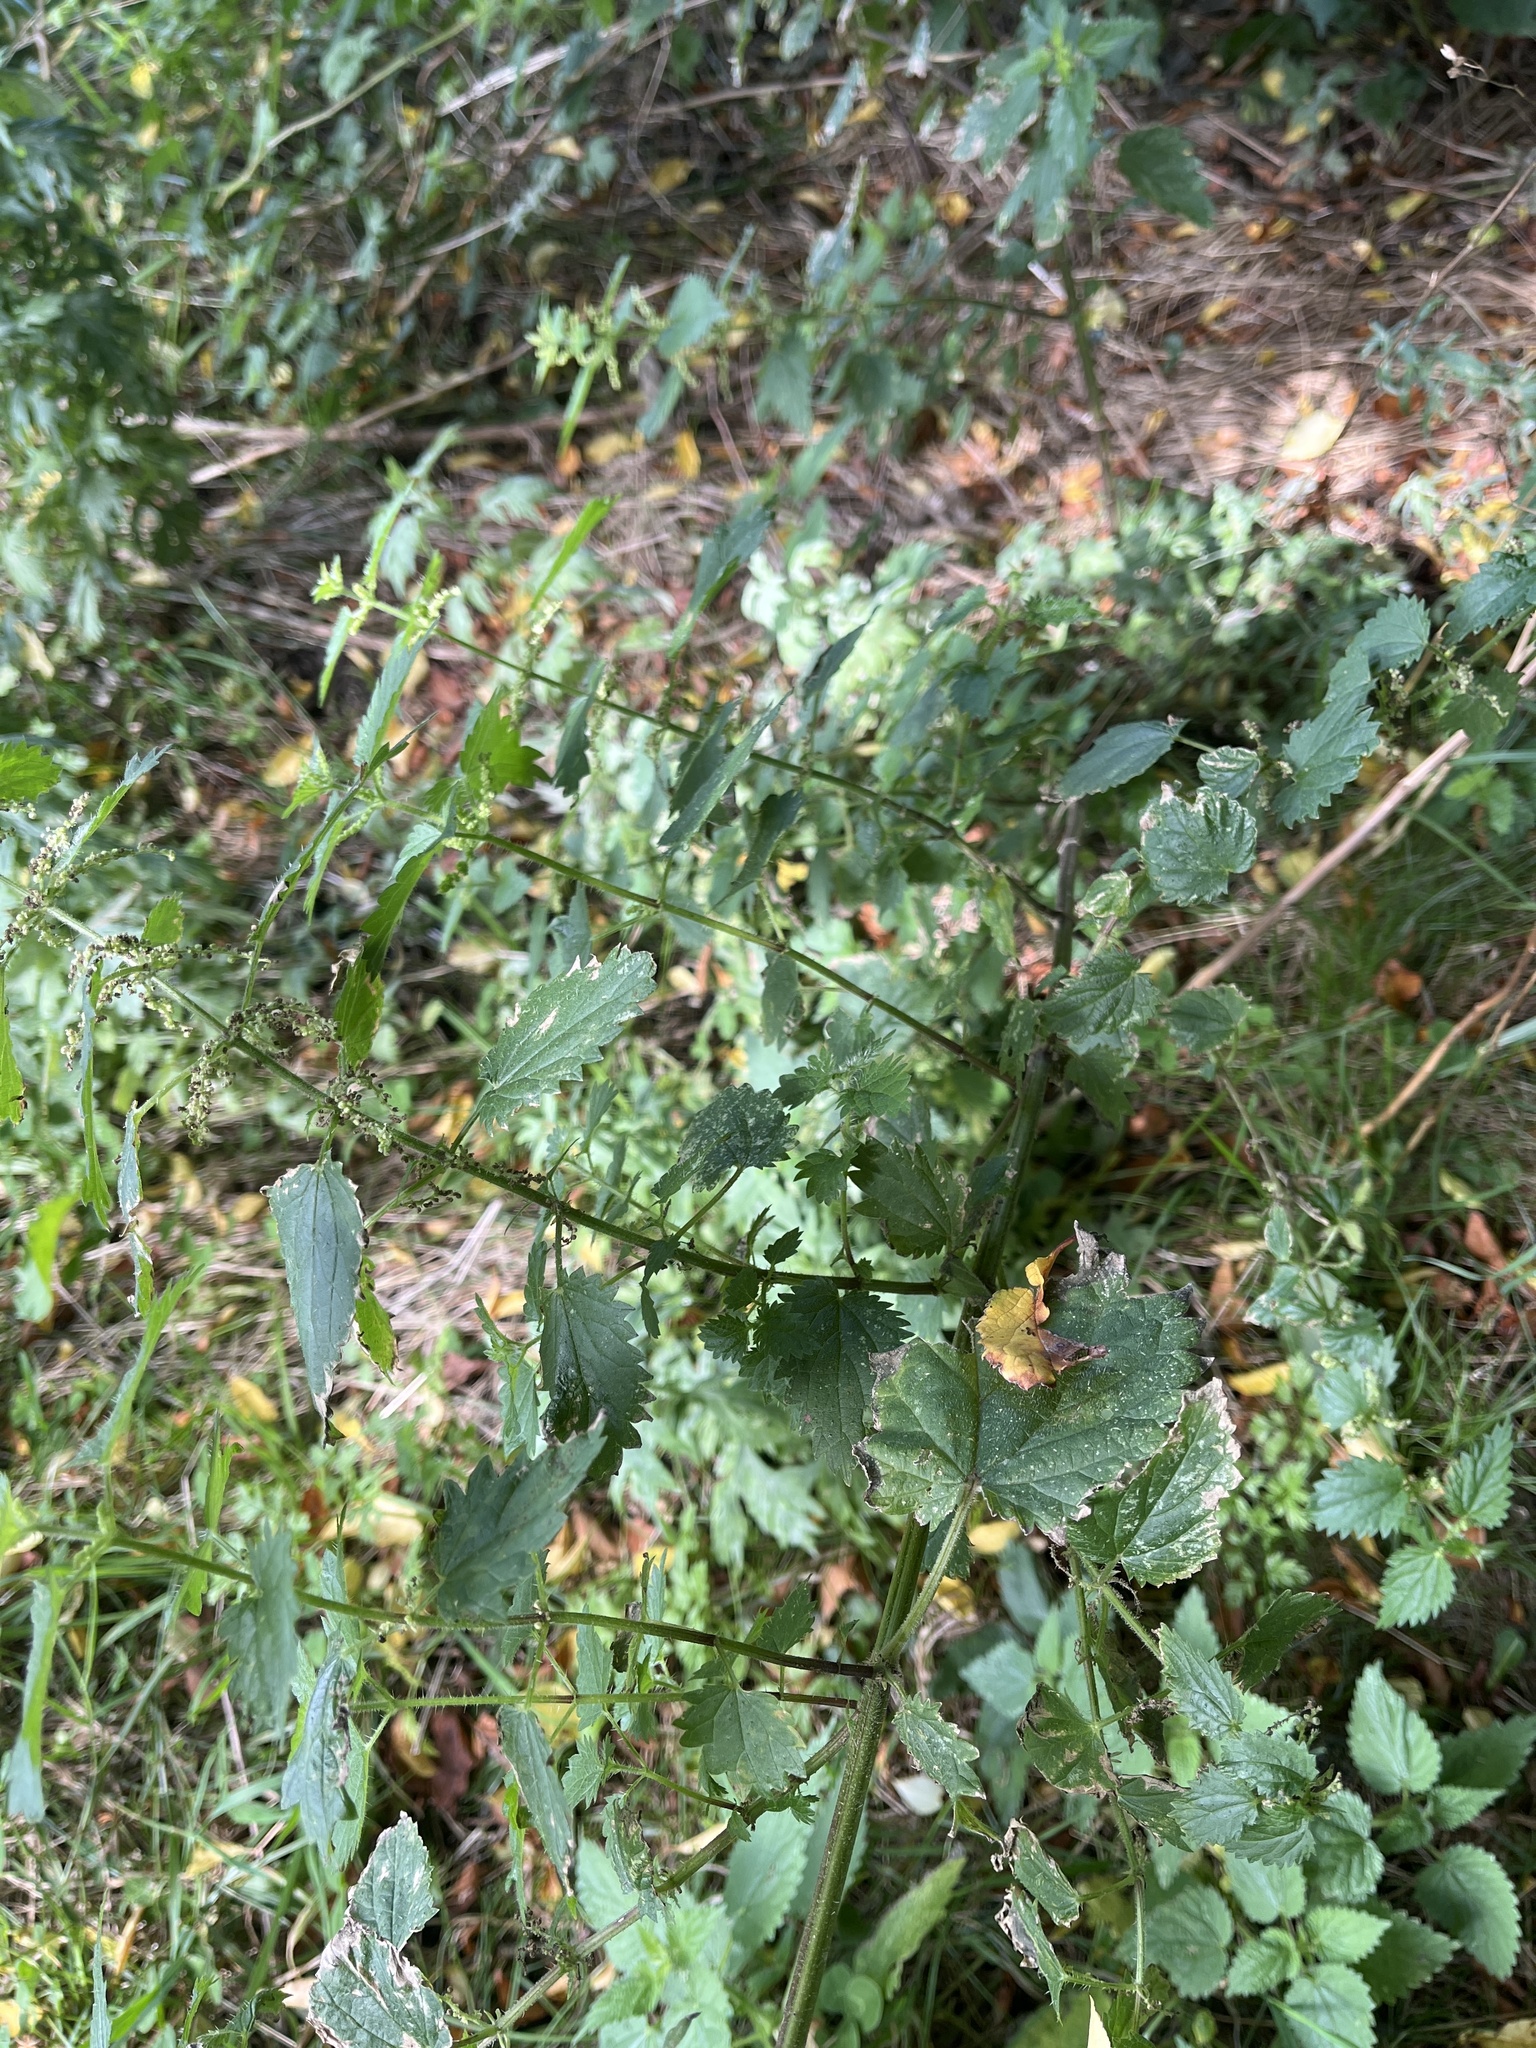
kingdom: Plantae
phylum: Tracheophyta
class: Magnoliopsida
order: Rosales
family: Urticaceae
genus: Urtica
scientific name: Urtica dioica
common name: Common nettle
